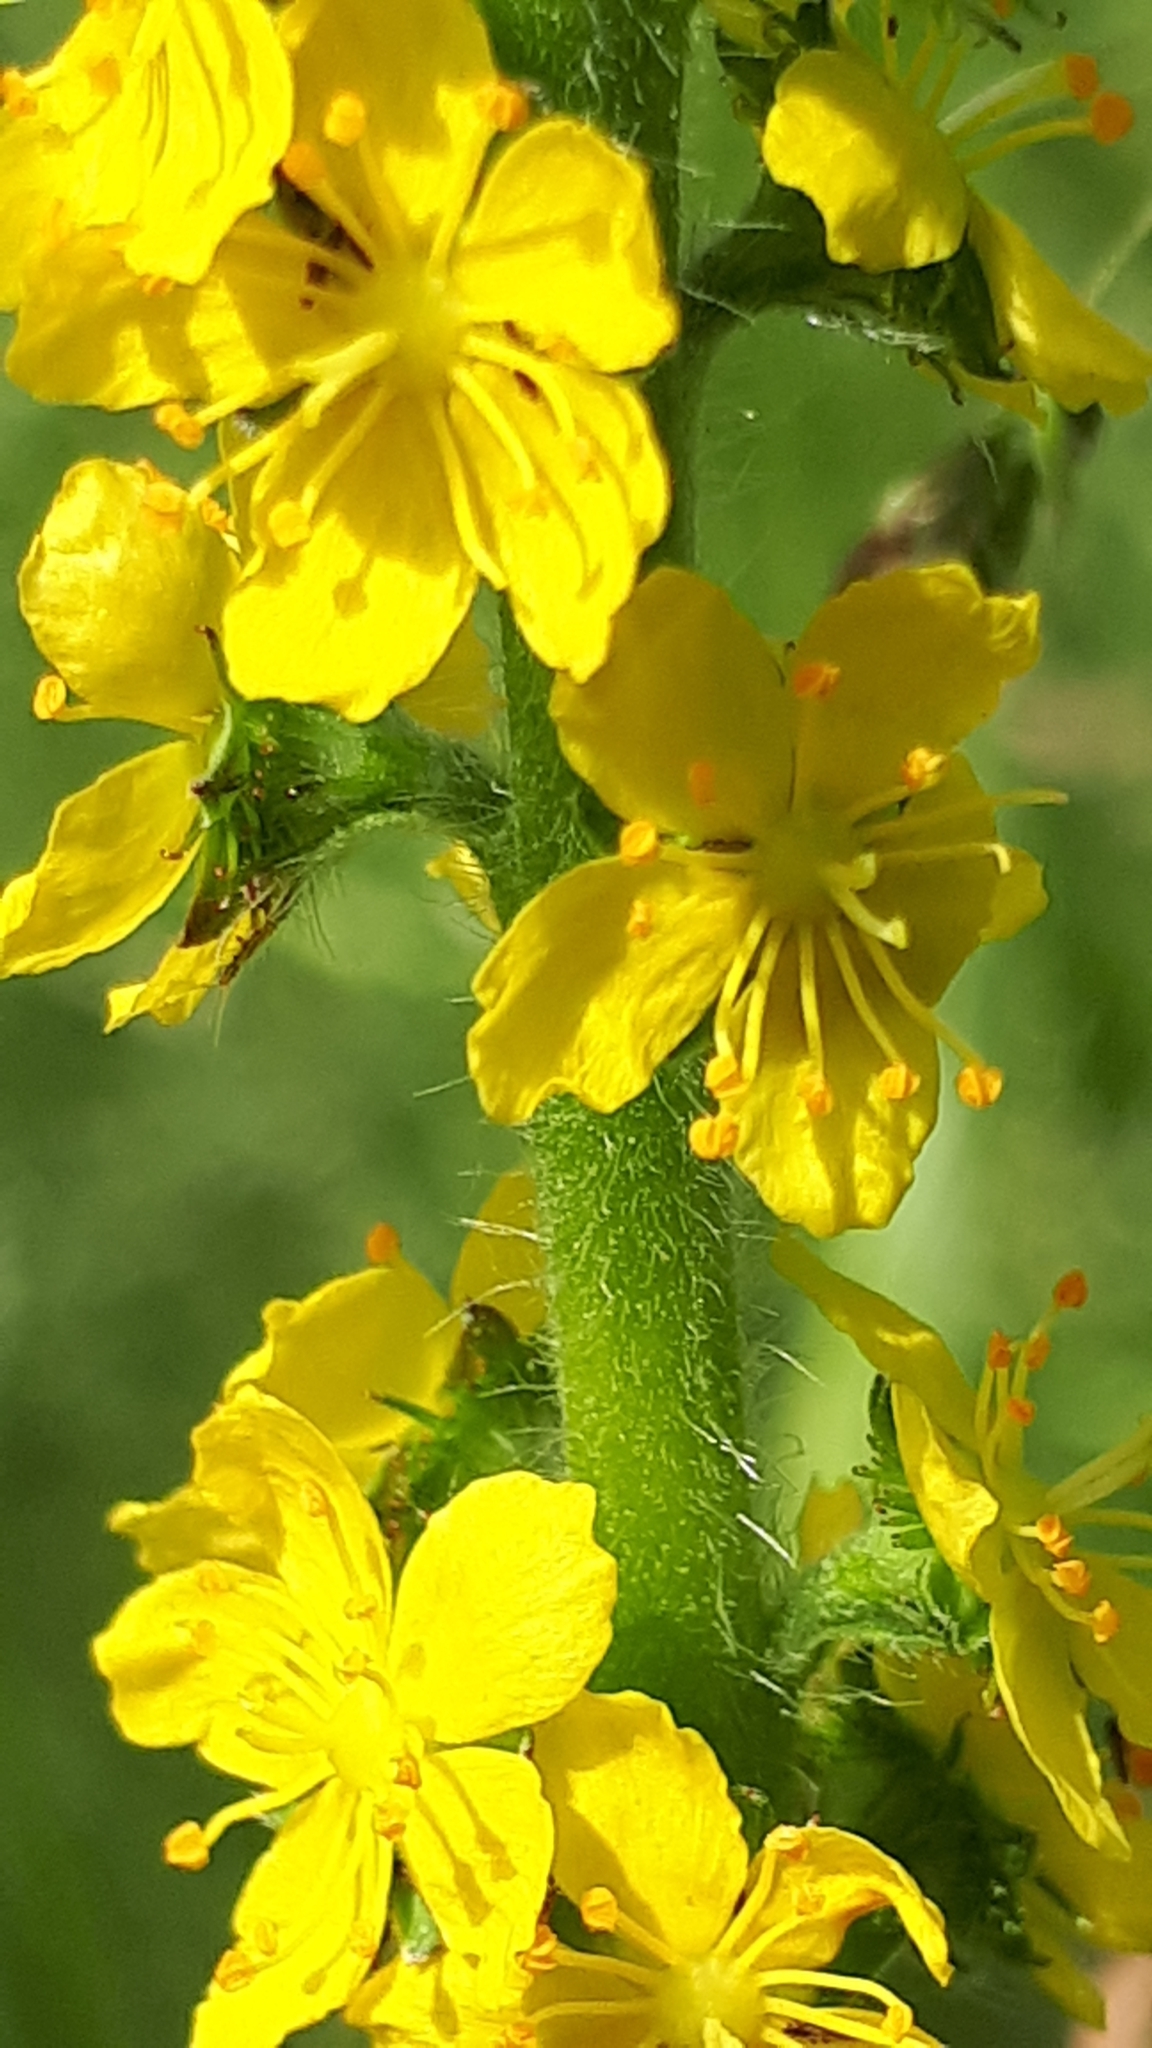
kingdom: Plantae
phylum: Tracheophyta
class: Magnoliopsida
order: Rosales
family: Rosaceae
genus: Agrimonia
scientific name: Agrimonia eupatoria
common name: Agrimony
